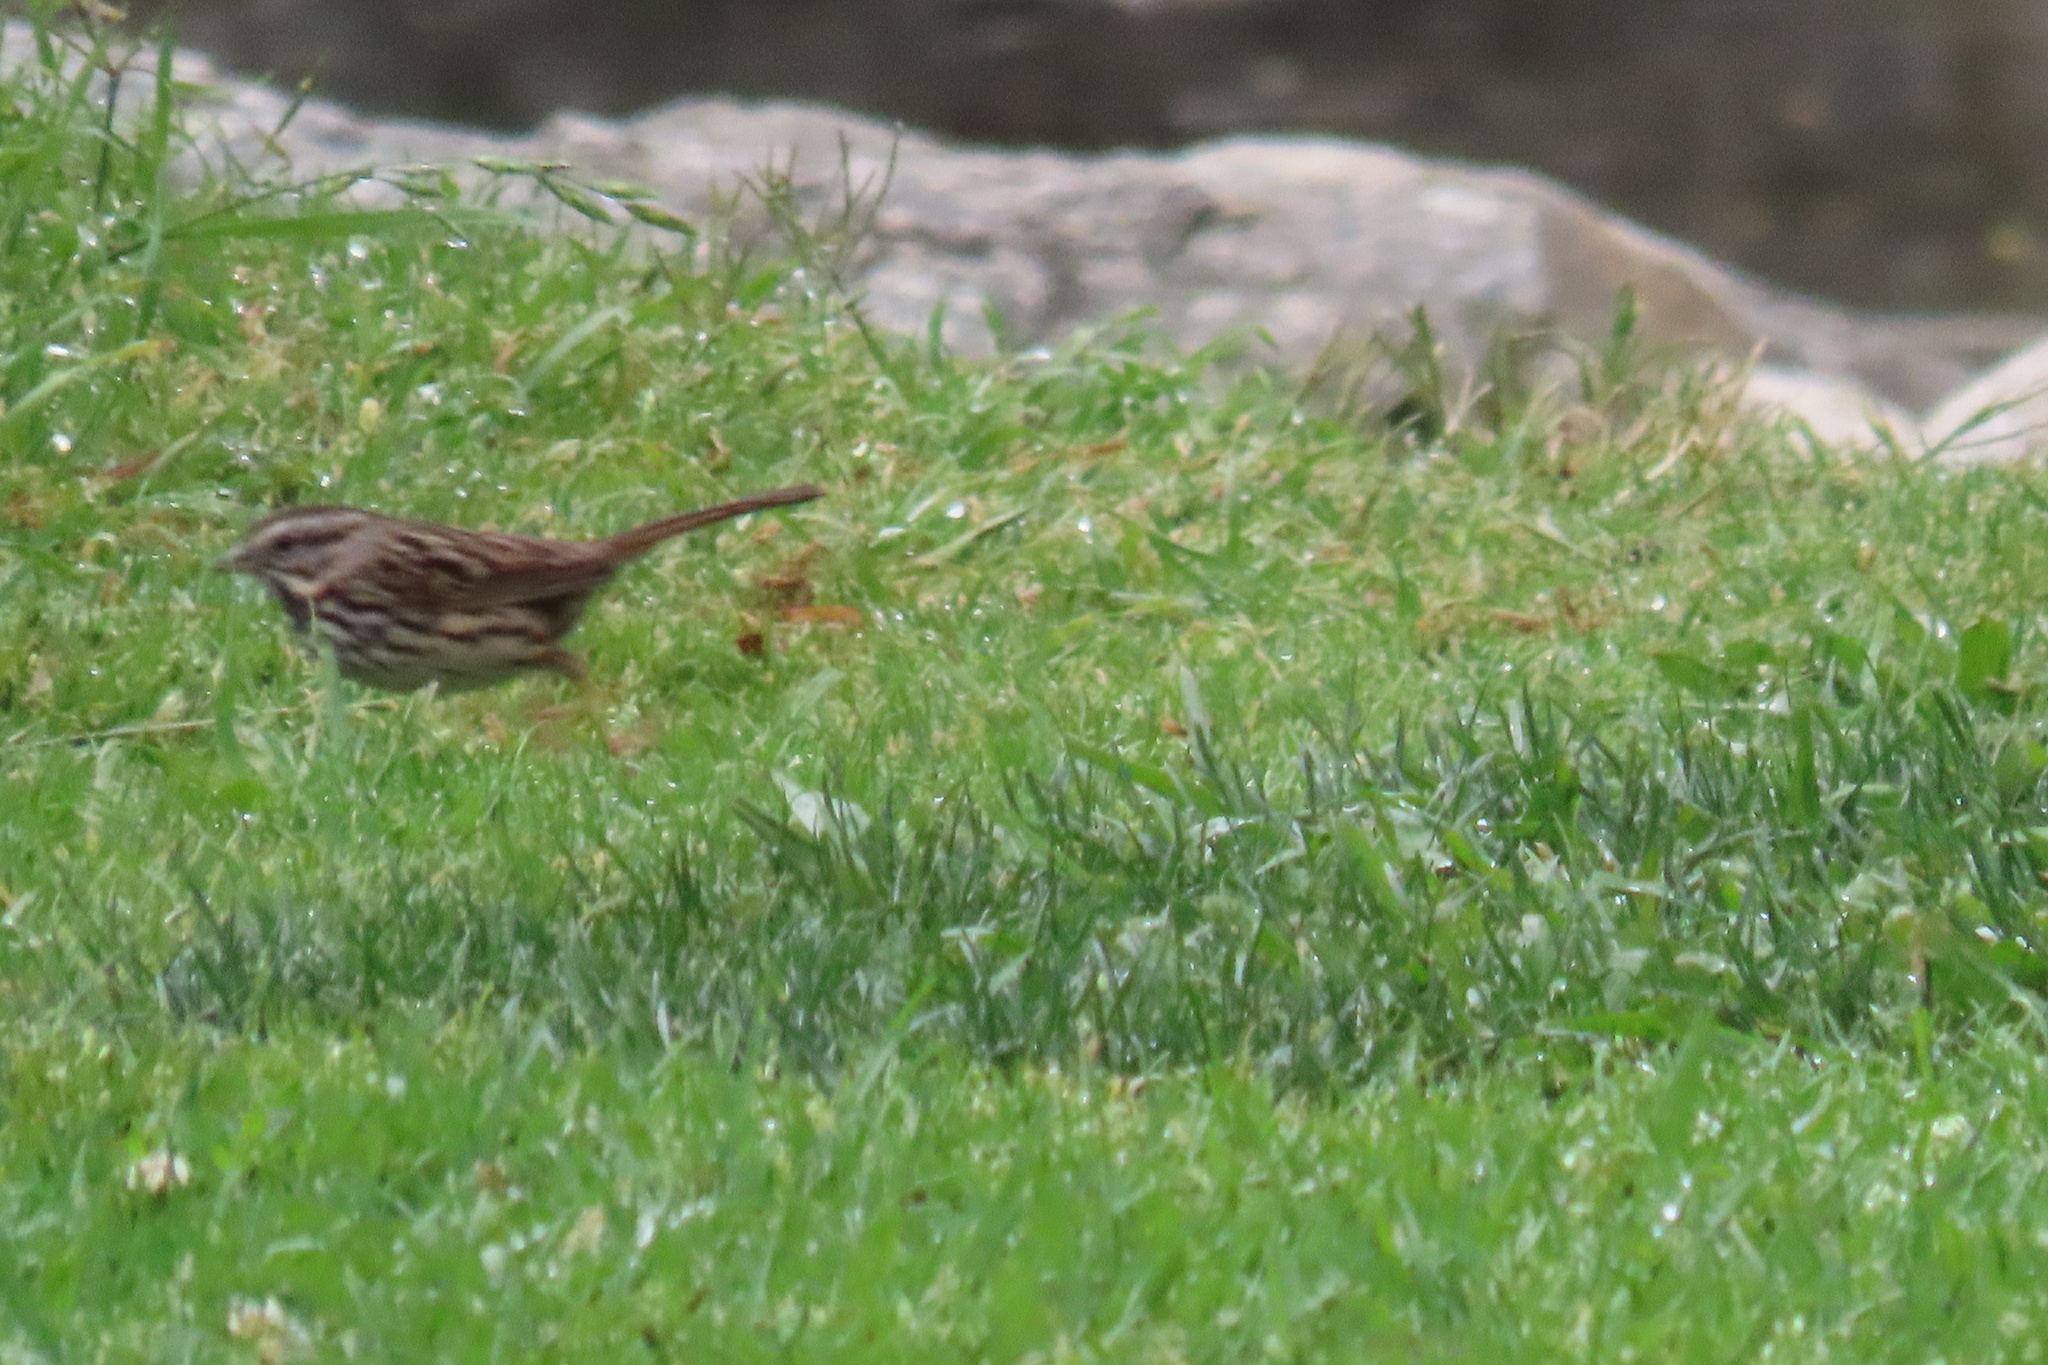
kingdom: Animalia
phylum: Chordata
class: Aves
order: Passeriformes
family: Passerellidae
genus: Melospiza
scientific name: Melospiza melodia
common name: Song sparrow
